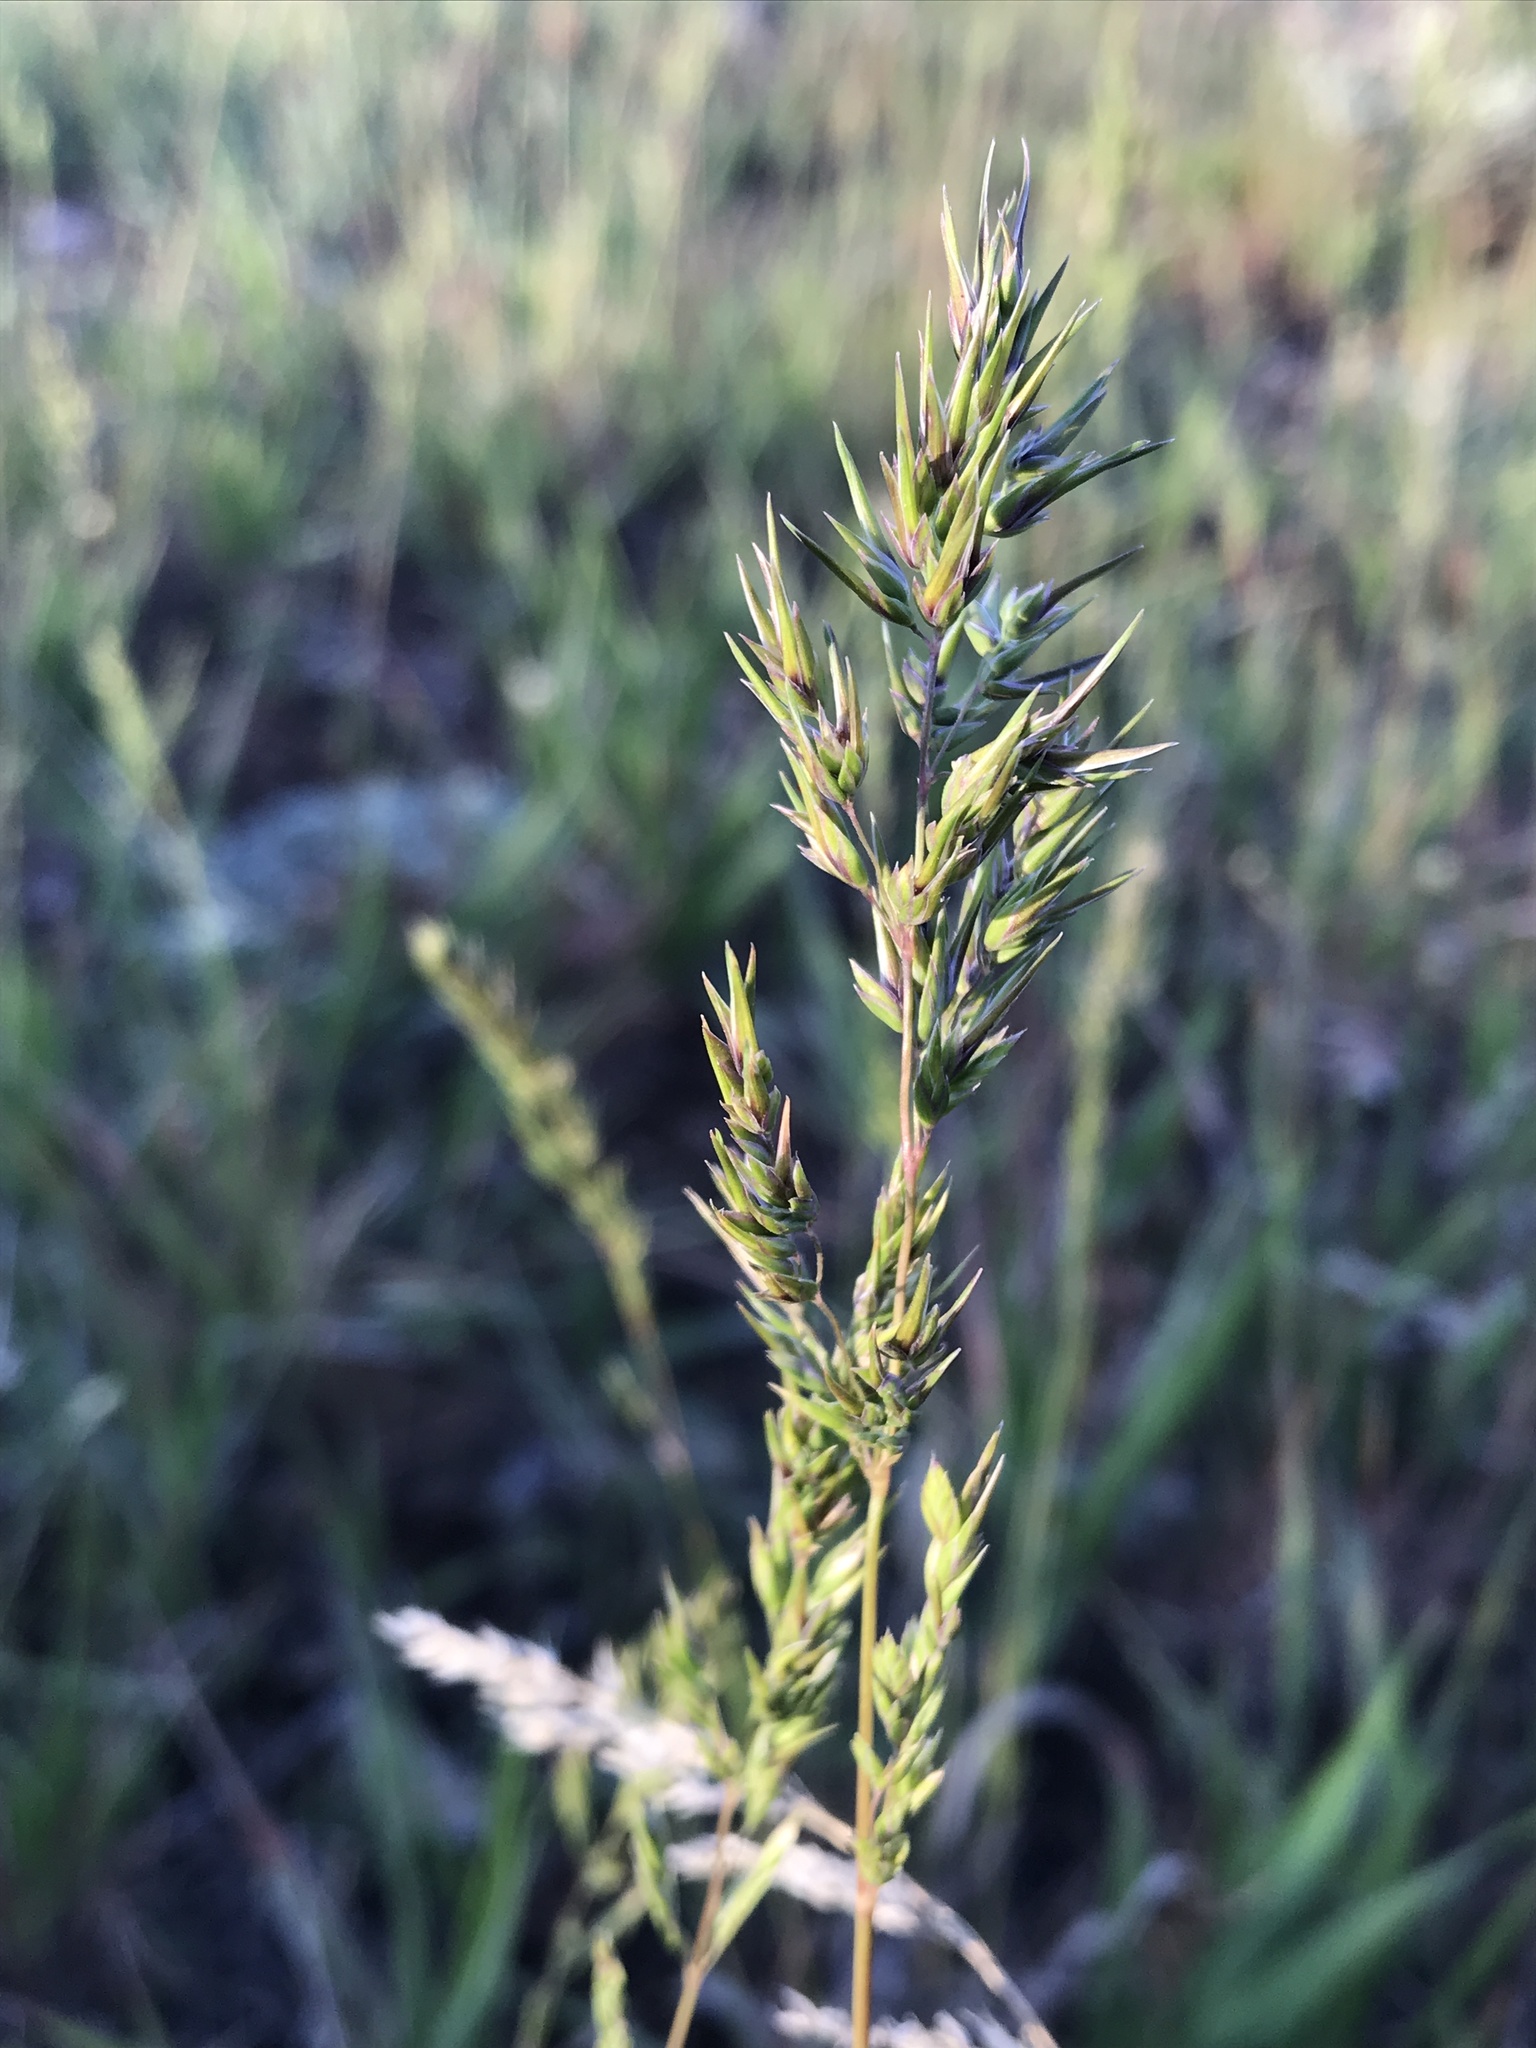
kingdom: Plantae
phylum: Tracheophyta
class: Liliopsida
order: Poales
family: Poaceae
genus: Poa
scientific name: Poa bulbosa
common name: Bulbous bluegrass
